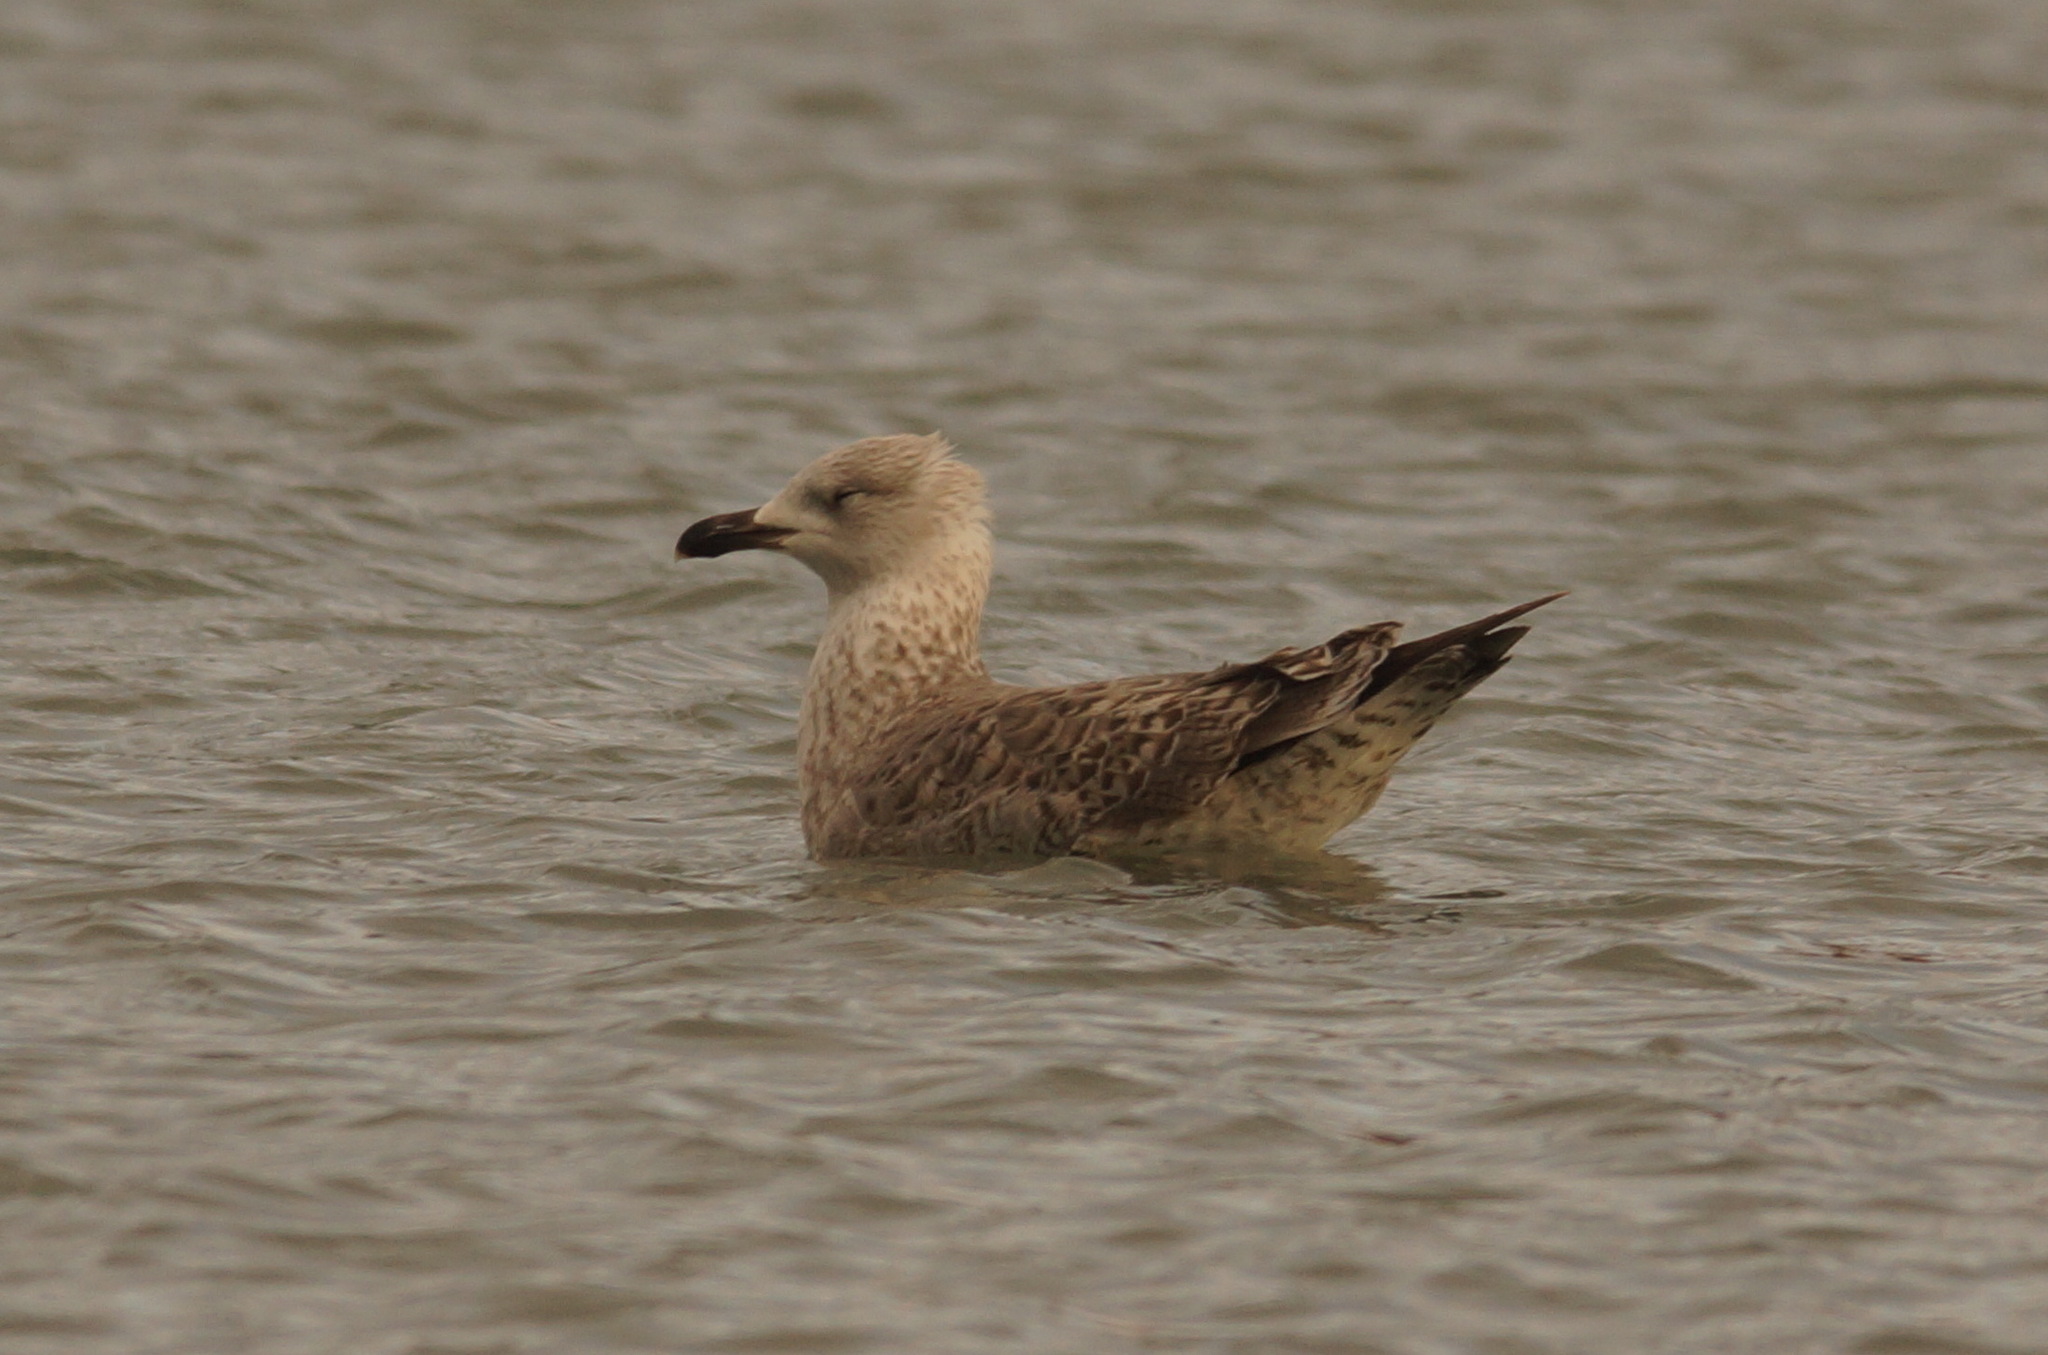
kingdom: Animalia
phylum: Chordata
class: Aves
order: Charadriiformes
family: Laridae
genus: Larus
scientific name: Larus michahellis
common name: Yellow-legged gull
